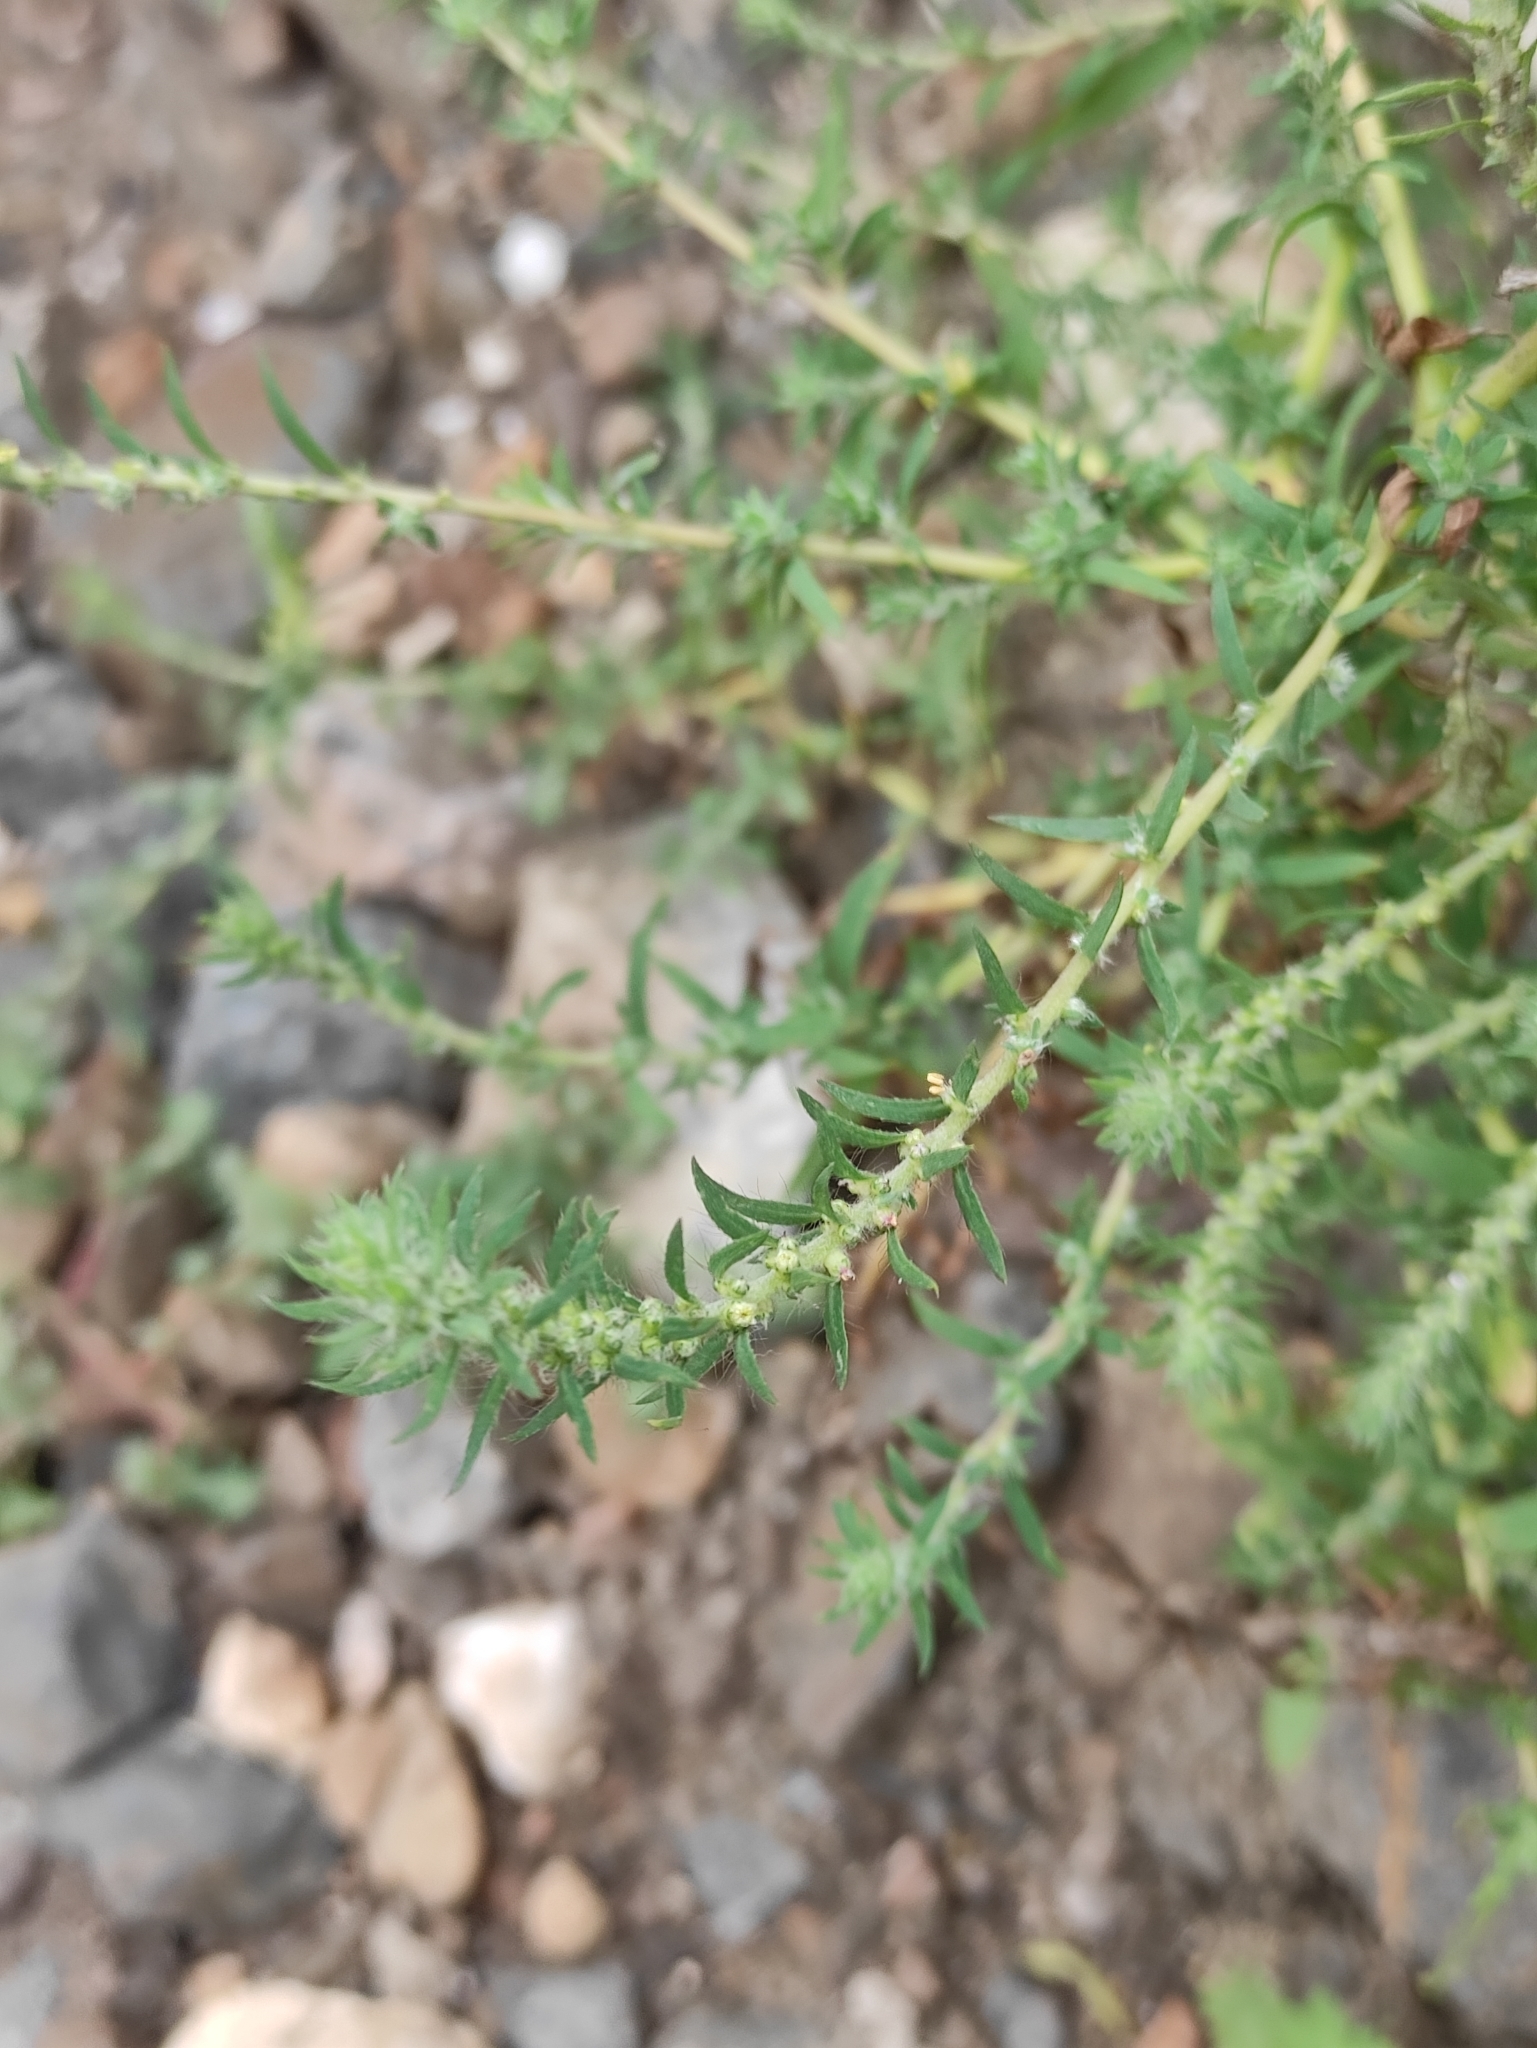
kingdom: Plantae
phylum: Tracheophyta
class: Magnoliopsida
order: Caryophyllales
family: Amaranthaceae
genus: Bassia
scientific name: Bassia scoparia
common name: Belvedere
